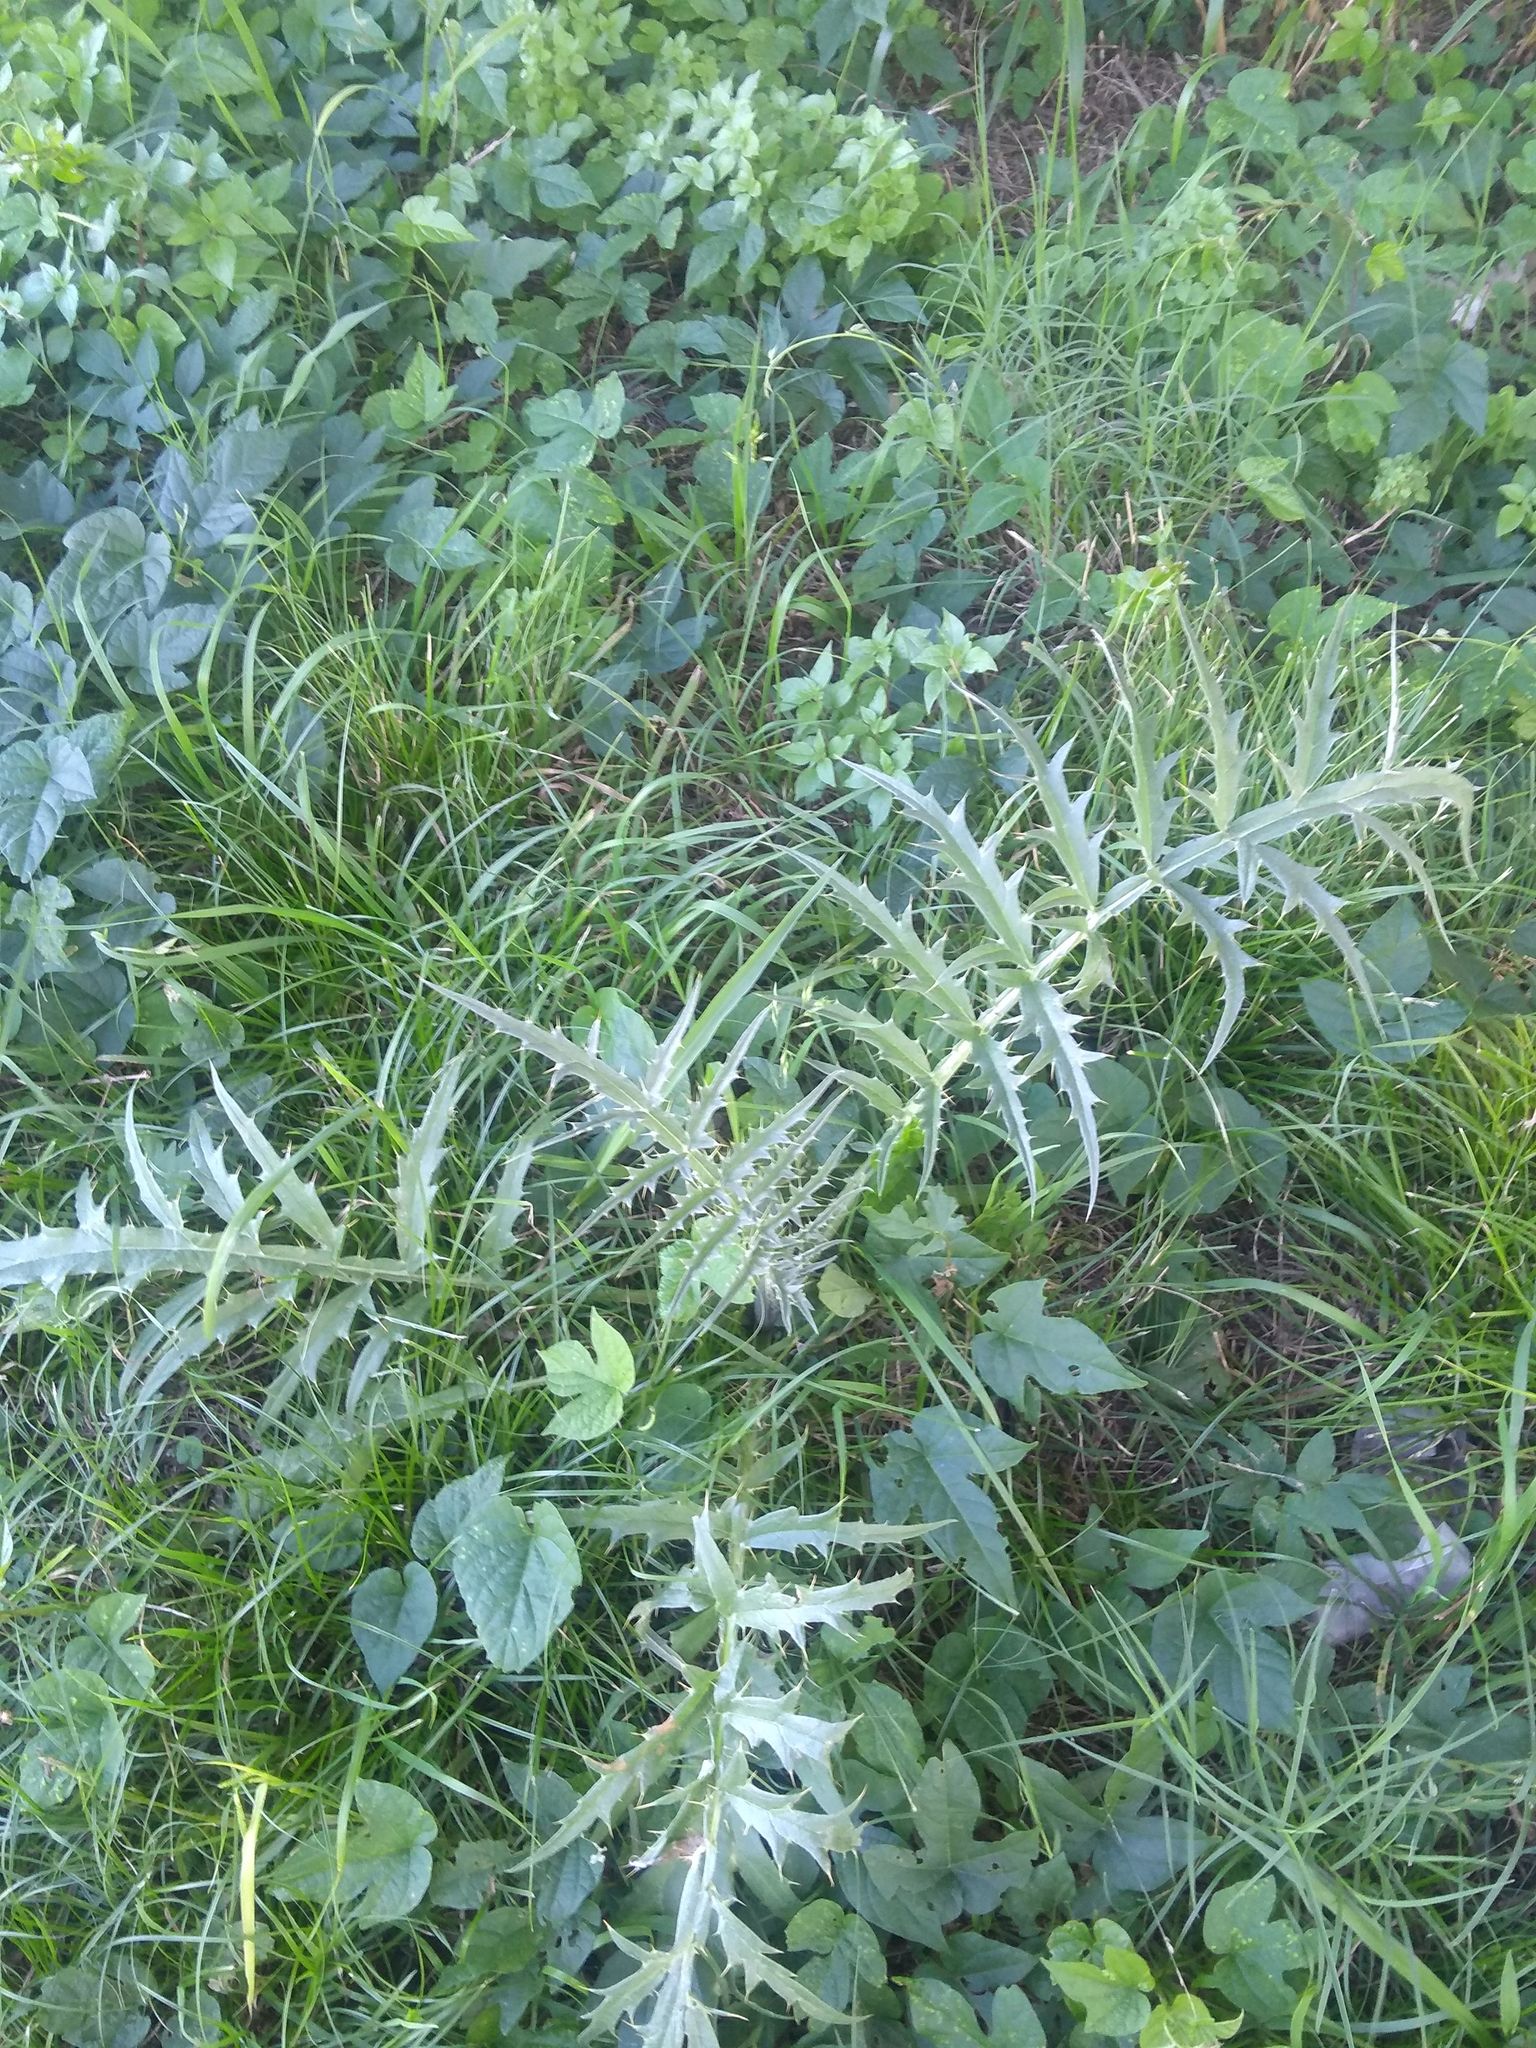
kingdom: Plantae
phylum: Tracheophyta
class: Magnoliopsida
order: Asterales
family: Asteraceae
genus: Cynara
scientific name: Cynara cardunculus
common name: Globe artichoke
